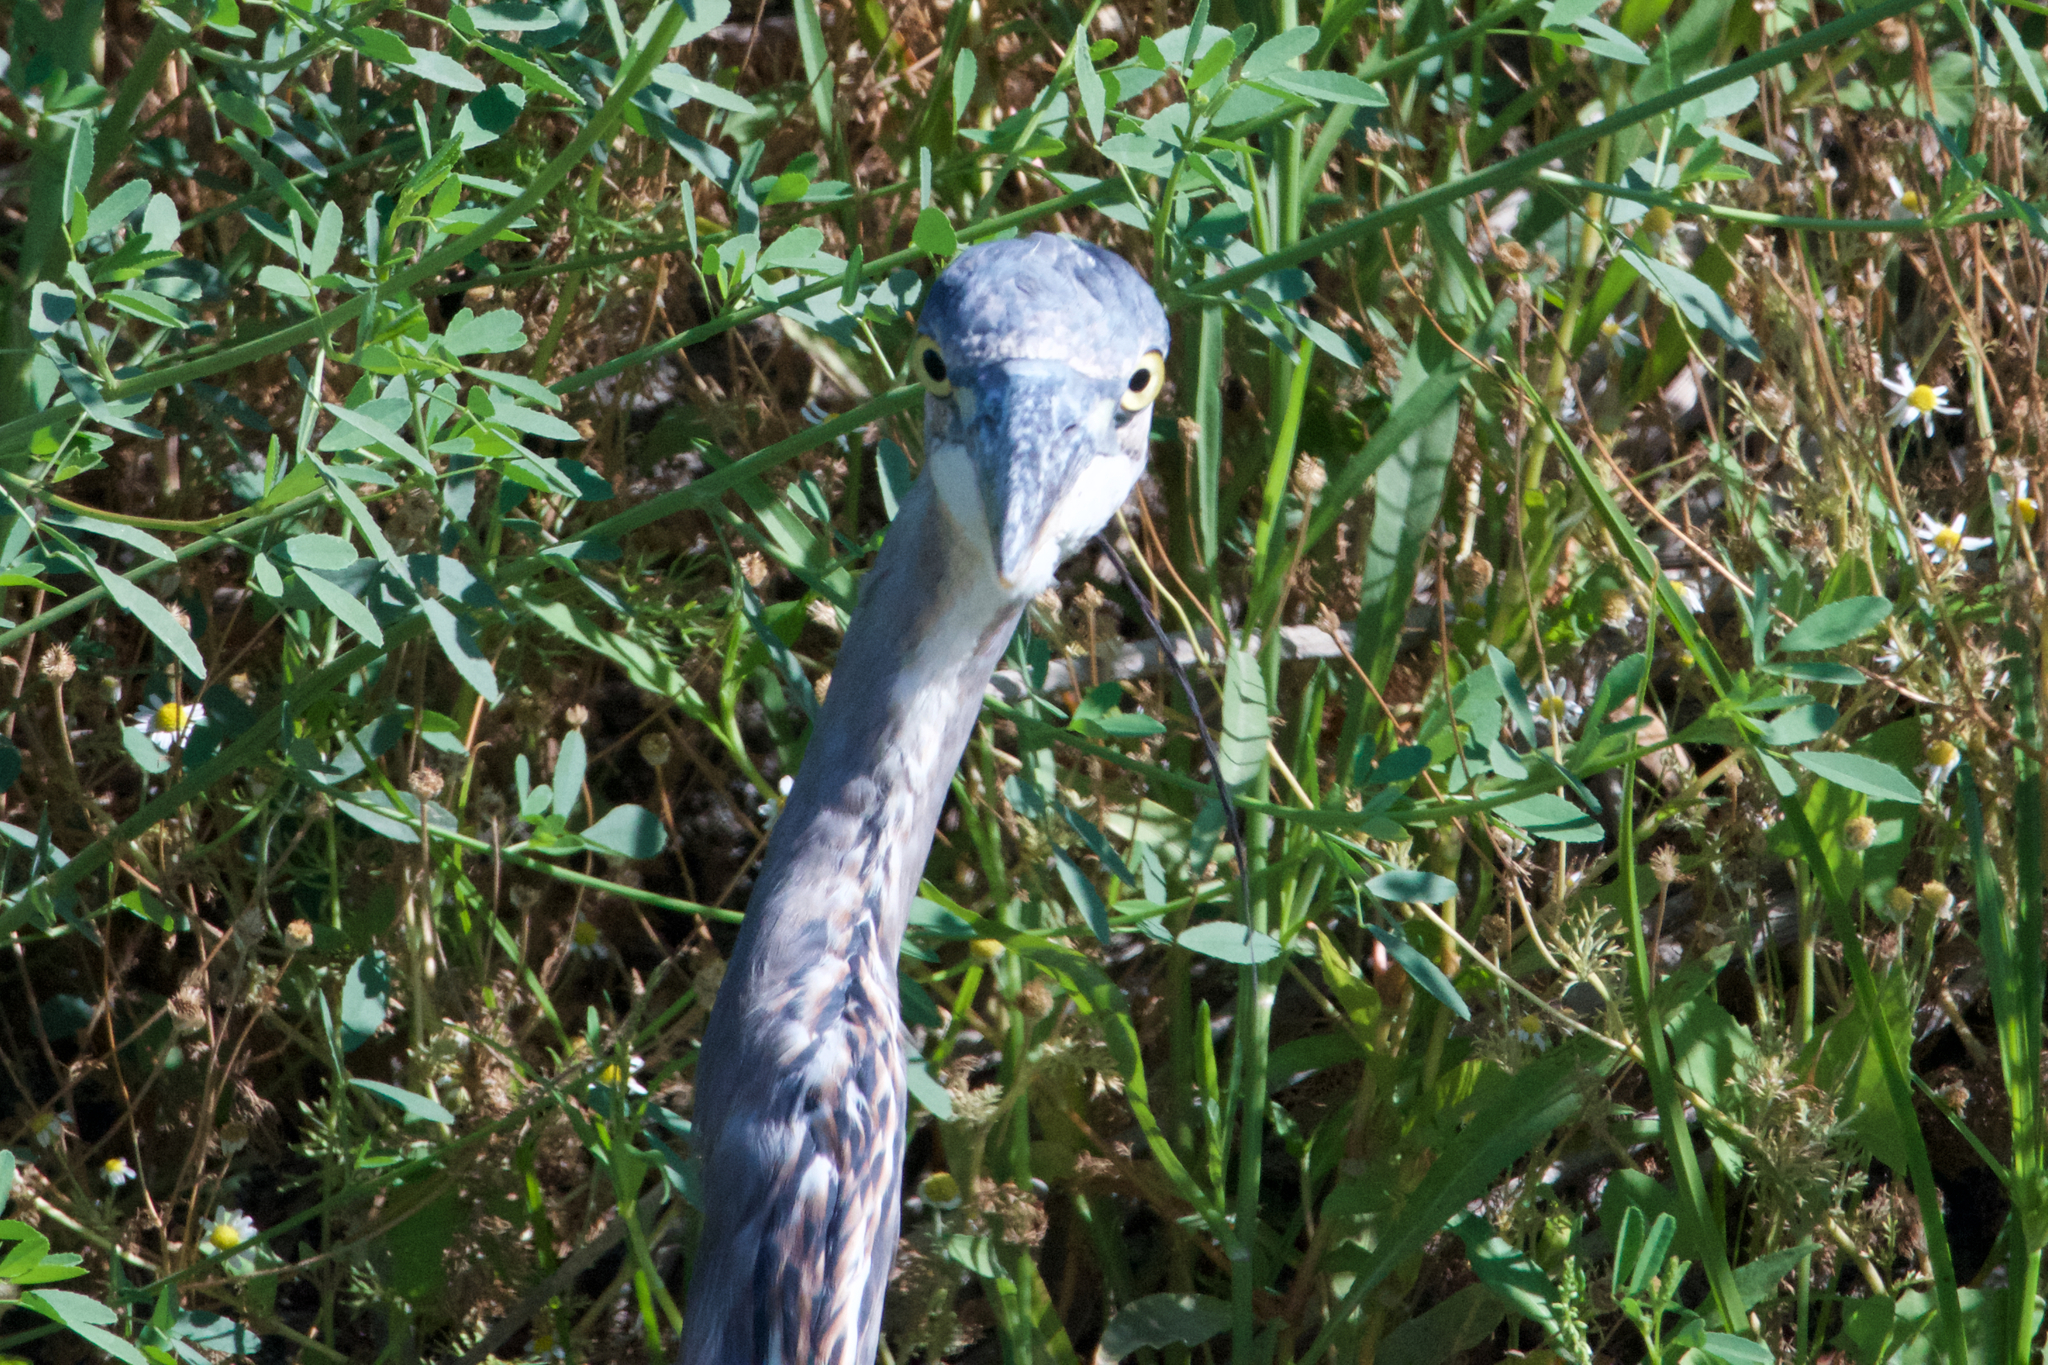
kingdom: Animalia
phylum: Chordata
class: Aves
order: Pelecaniformes
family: Ardeidae
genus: Ardea
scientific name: Ardea herodias
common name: Great blue heron
